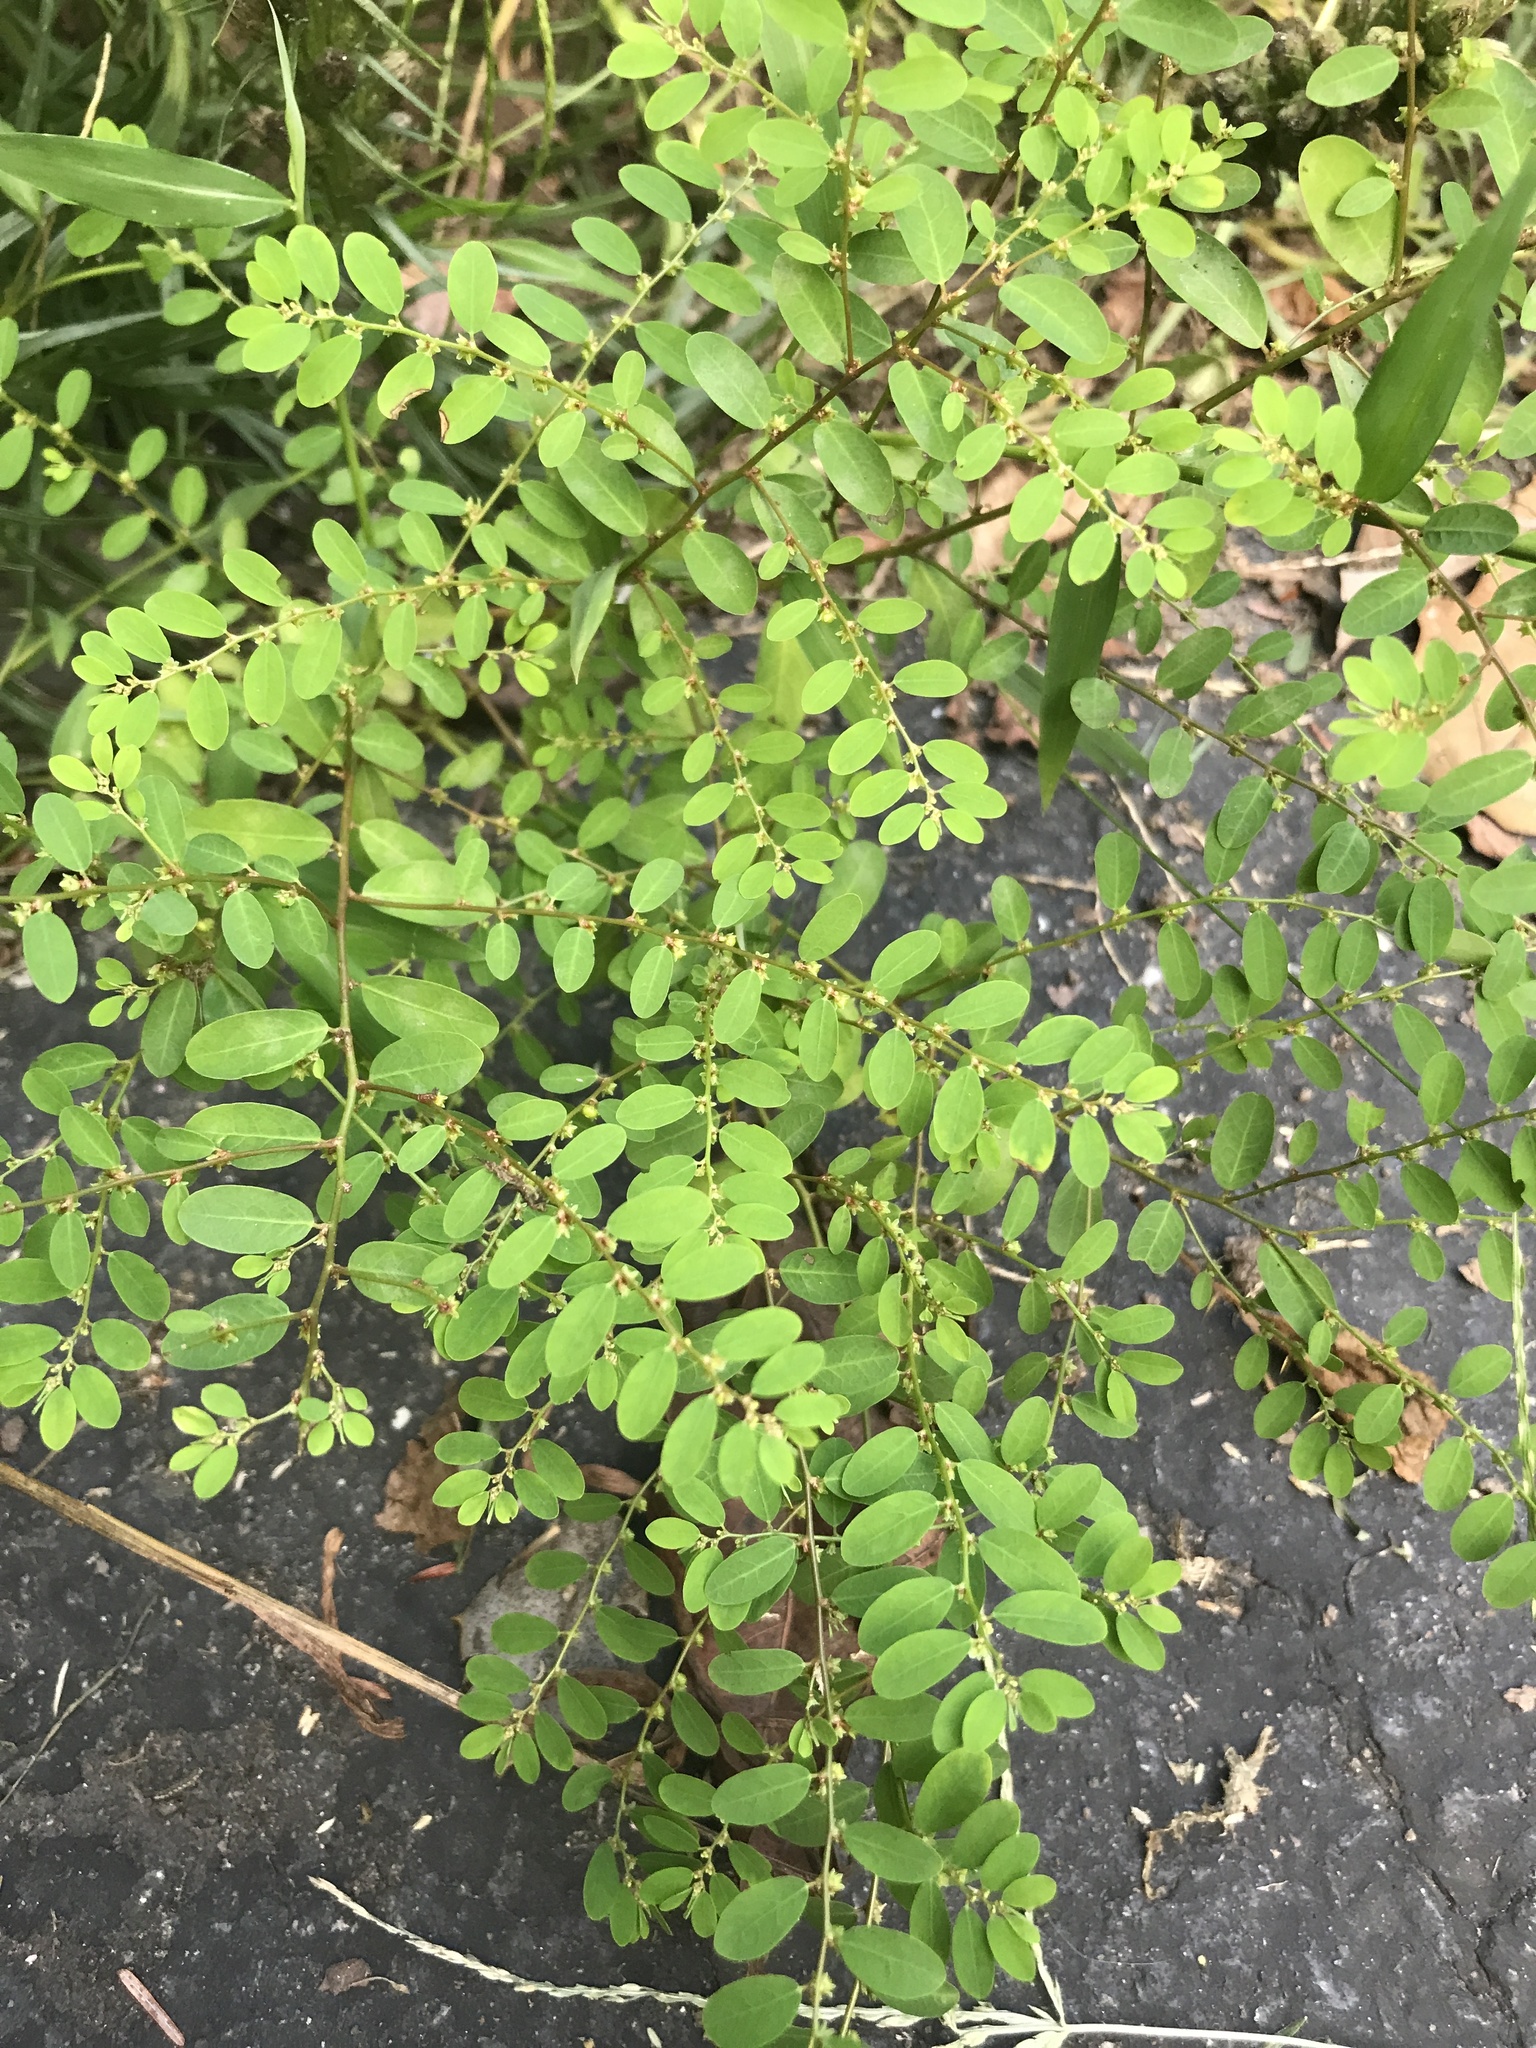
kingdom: Plantae
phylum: Tracheophyta
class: Magnoliopsida
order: Malpighiales
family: Phyllanthaceae
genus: Phyllanthus
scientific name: Phyllanthus caroliniensis
